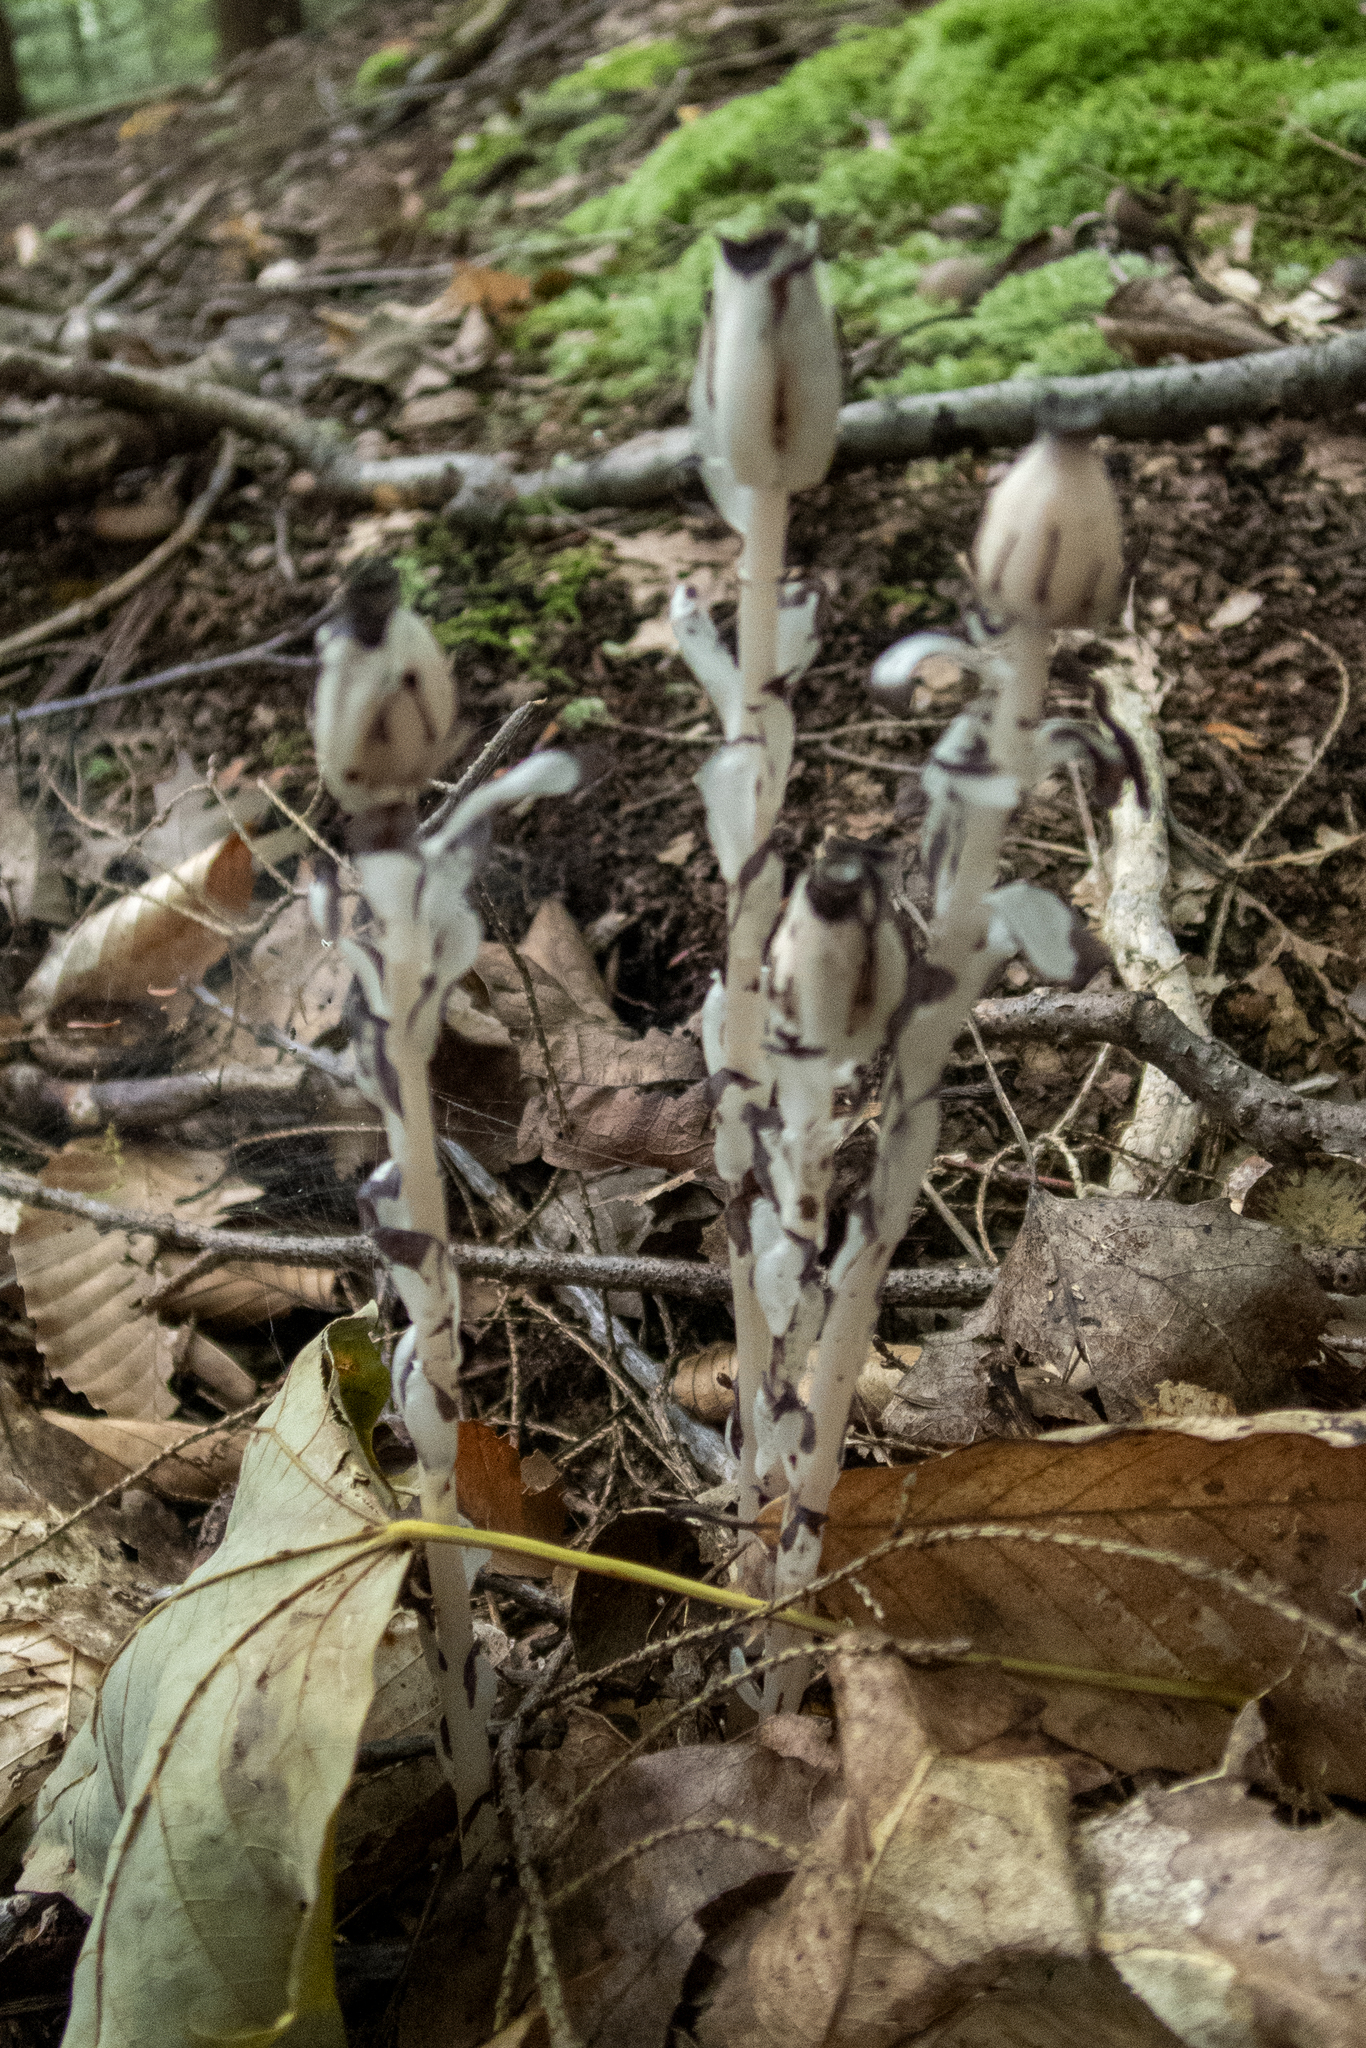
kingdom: Plantae
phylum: Tracheophyta
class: Magnoliopsida
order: Ericales
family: Ericaceae
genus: Monotropa
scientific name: Monotropa uniflora
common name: Convulsion root
